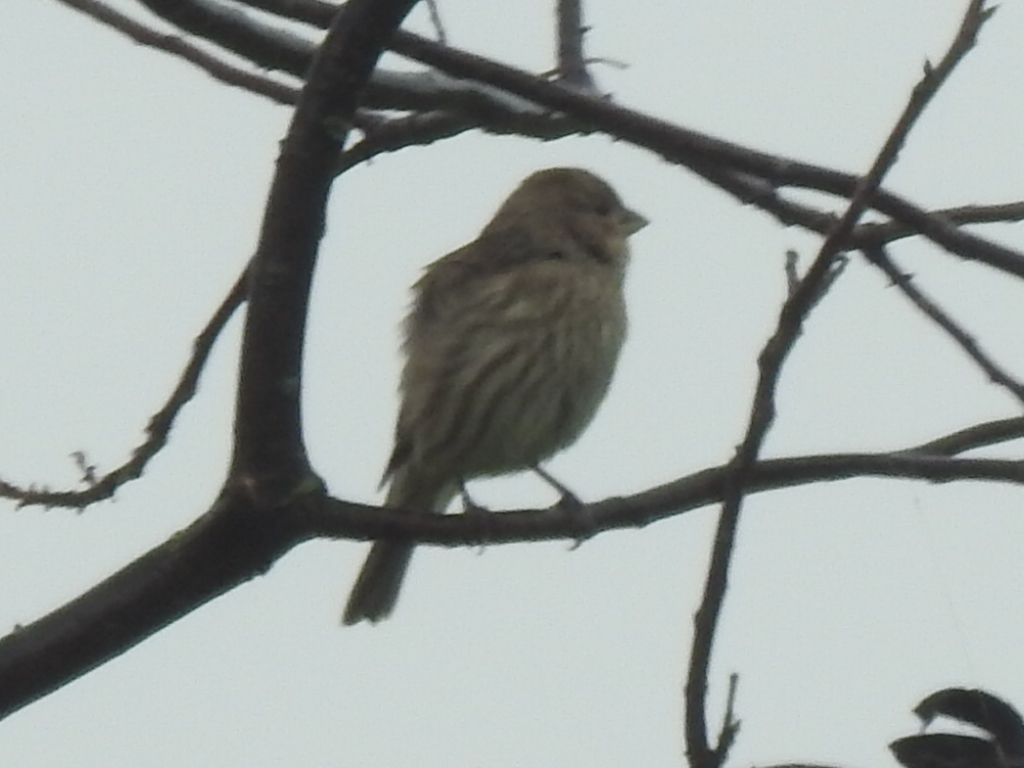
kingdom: Animalia
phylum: Chordata
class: Aves
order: Passeriformes
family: Fringillidae
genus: Haemorhous
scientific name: Haemorhous mexicanus
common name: House finch
